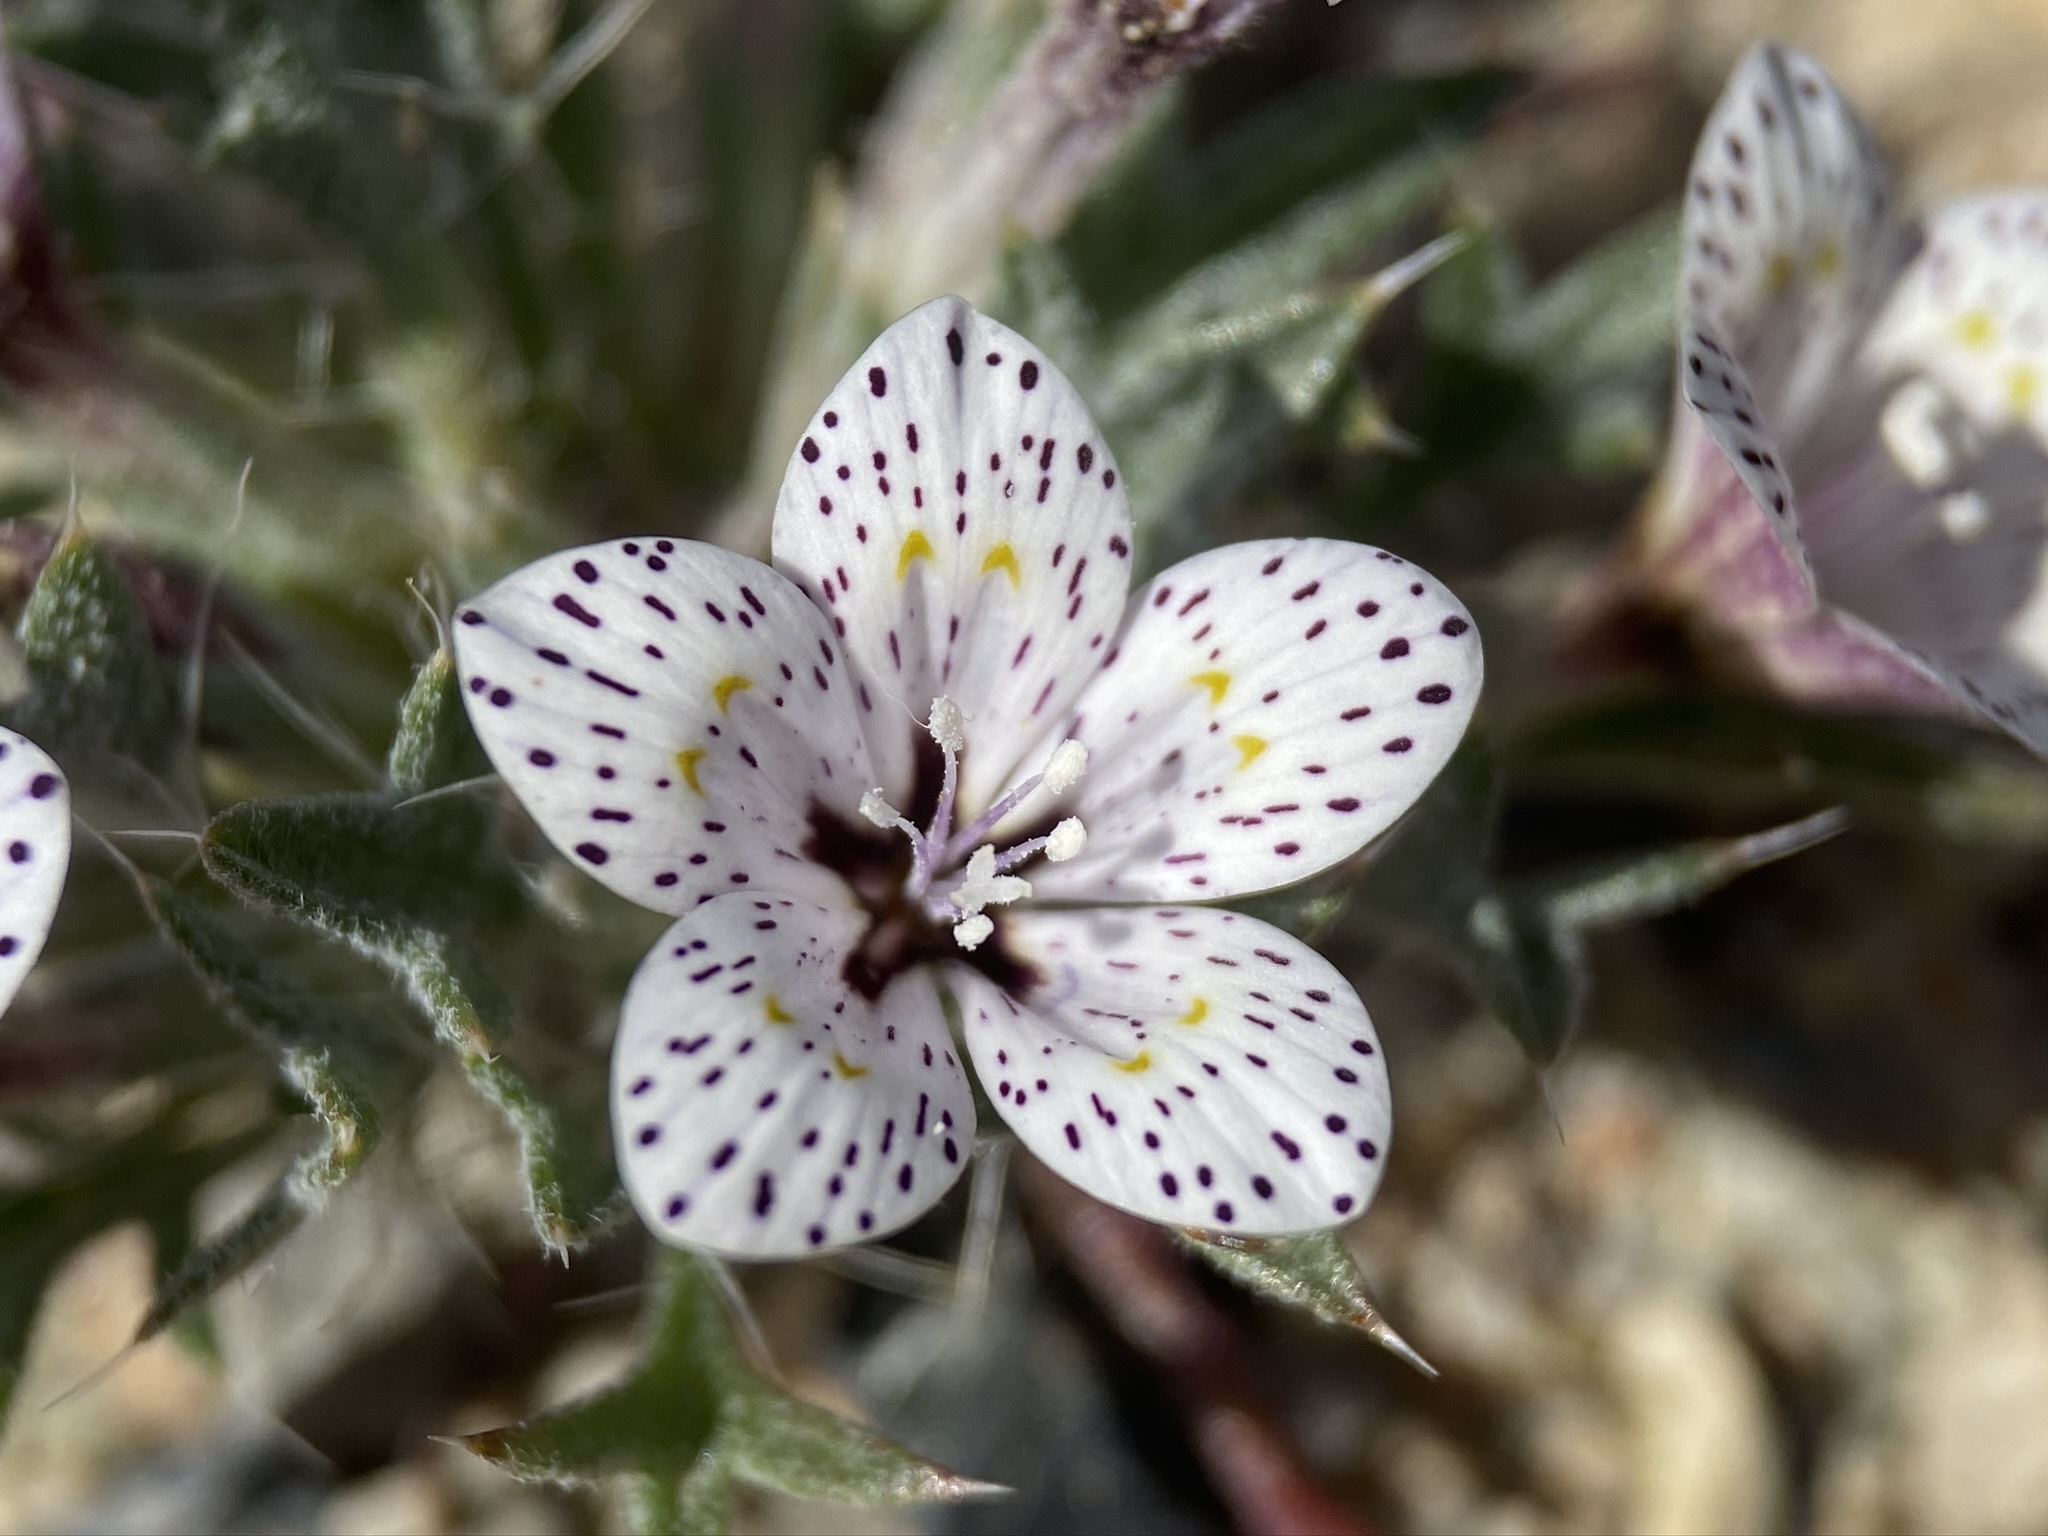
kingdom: Plantae
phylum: Tracheophyta
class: Magnoliopsida
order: Ericales
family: Polemoniaceae
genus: Langloisia
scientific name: Langloisia setosissima
